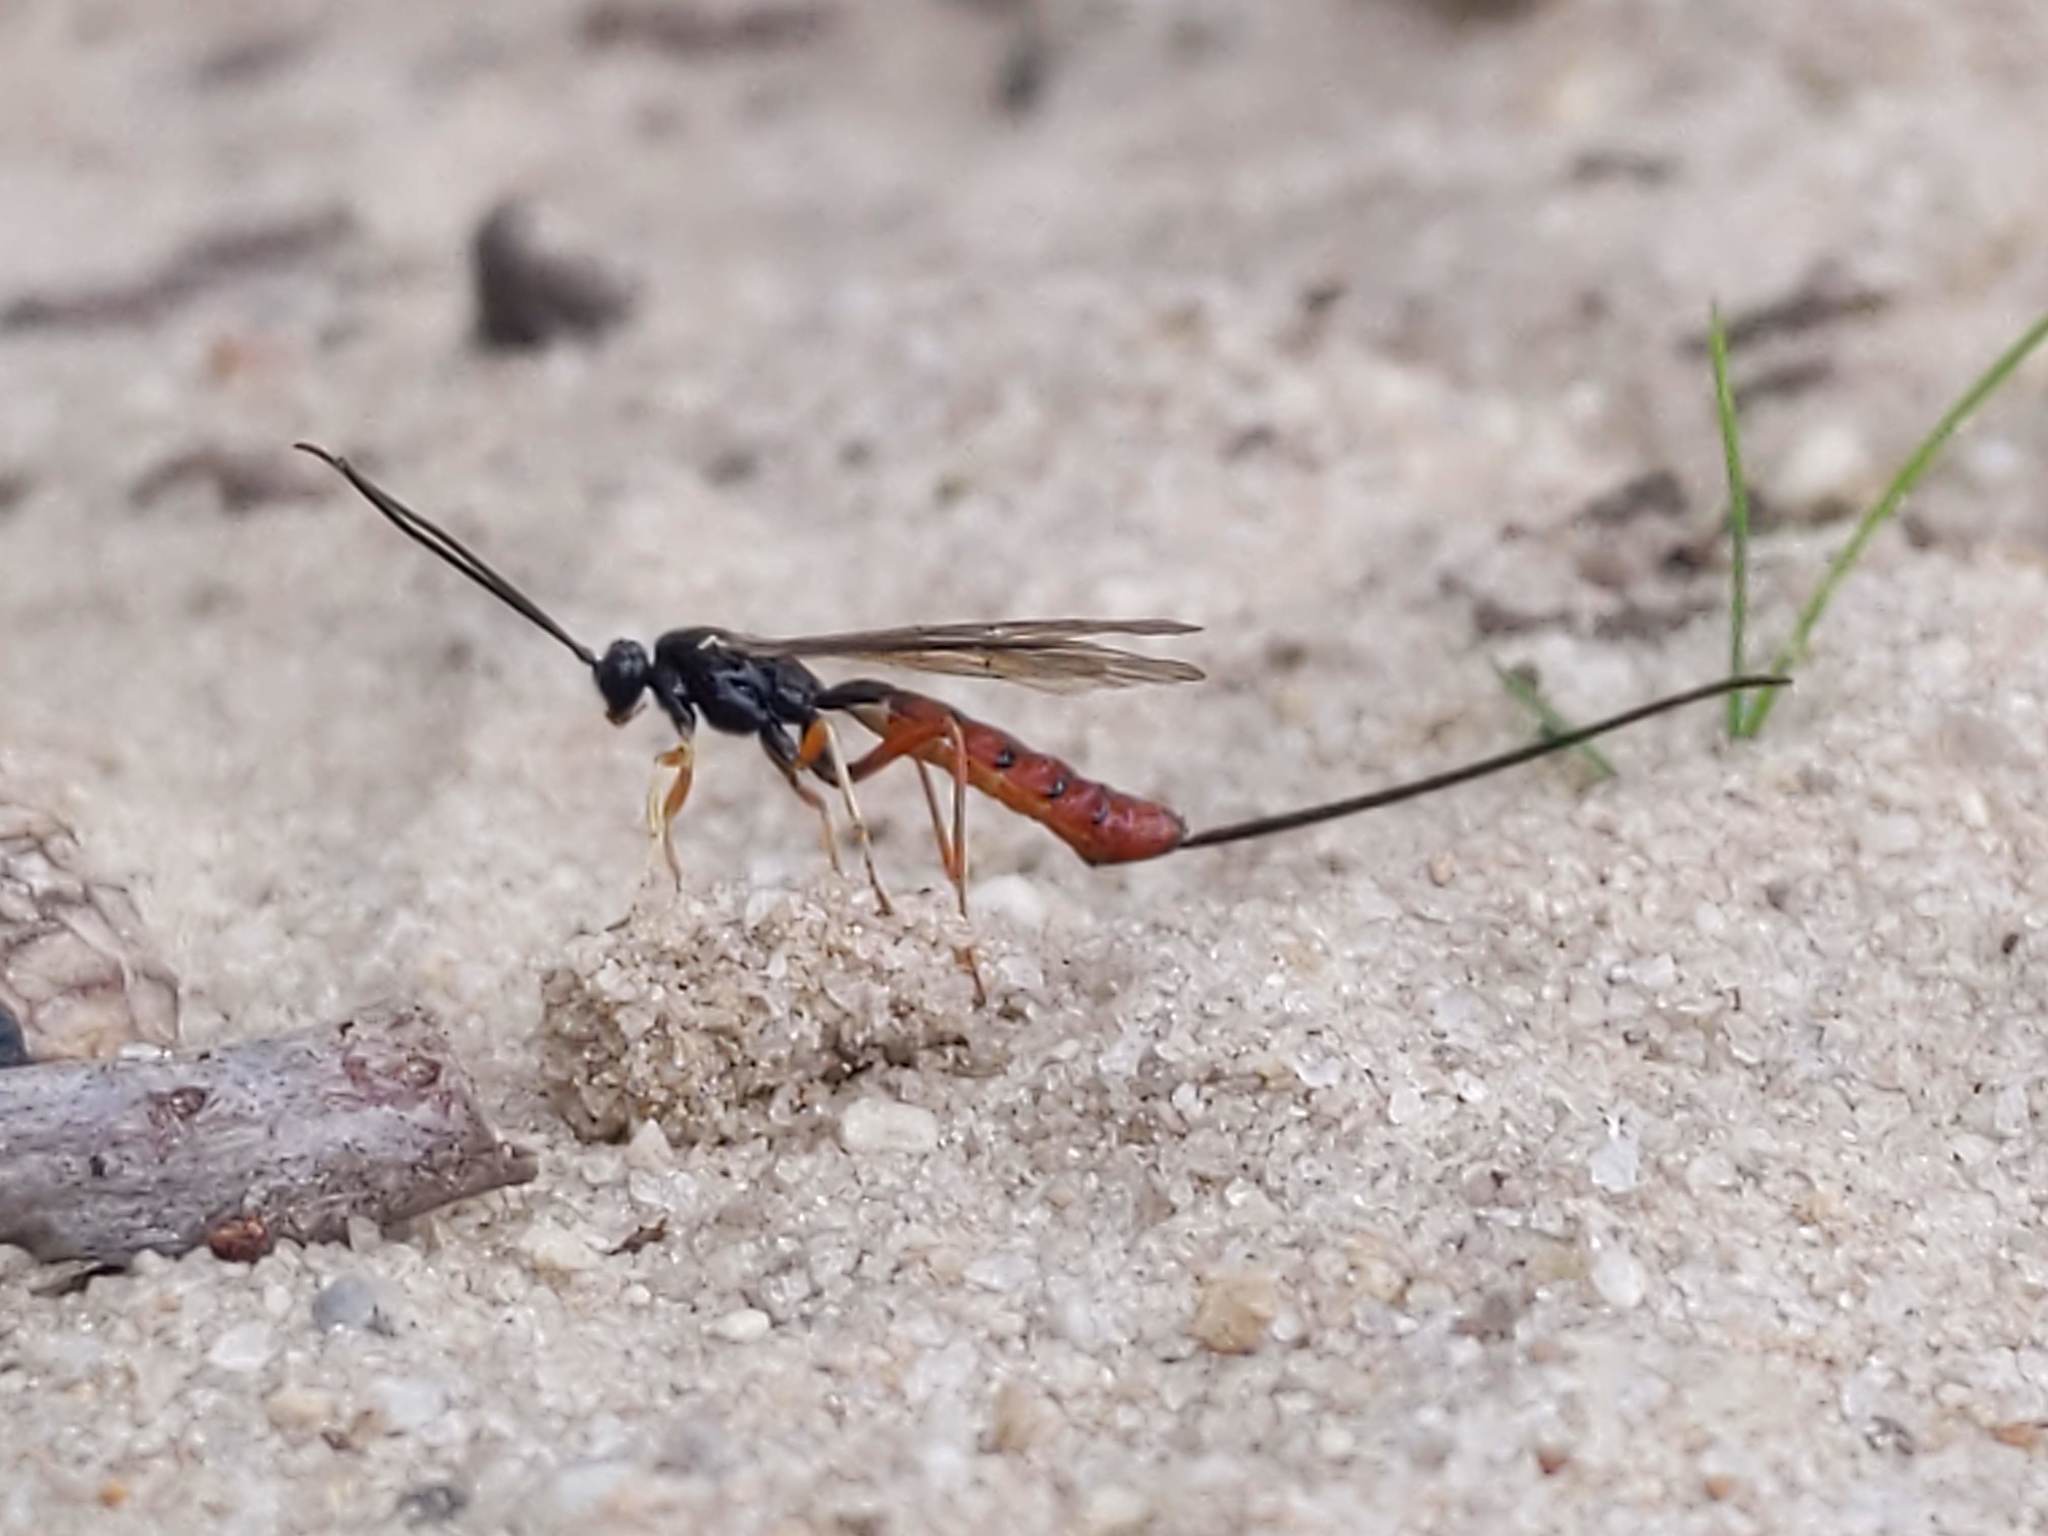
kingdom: Animalia
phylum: Arthropoda
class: Insecta
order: Hymenoptera
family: Ichneumonidae
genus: Dolichomitus
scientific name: Dolichomitus irritator
